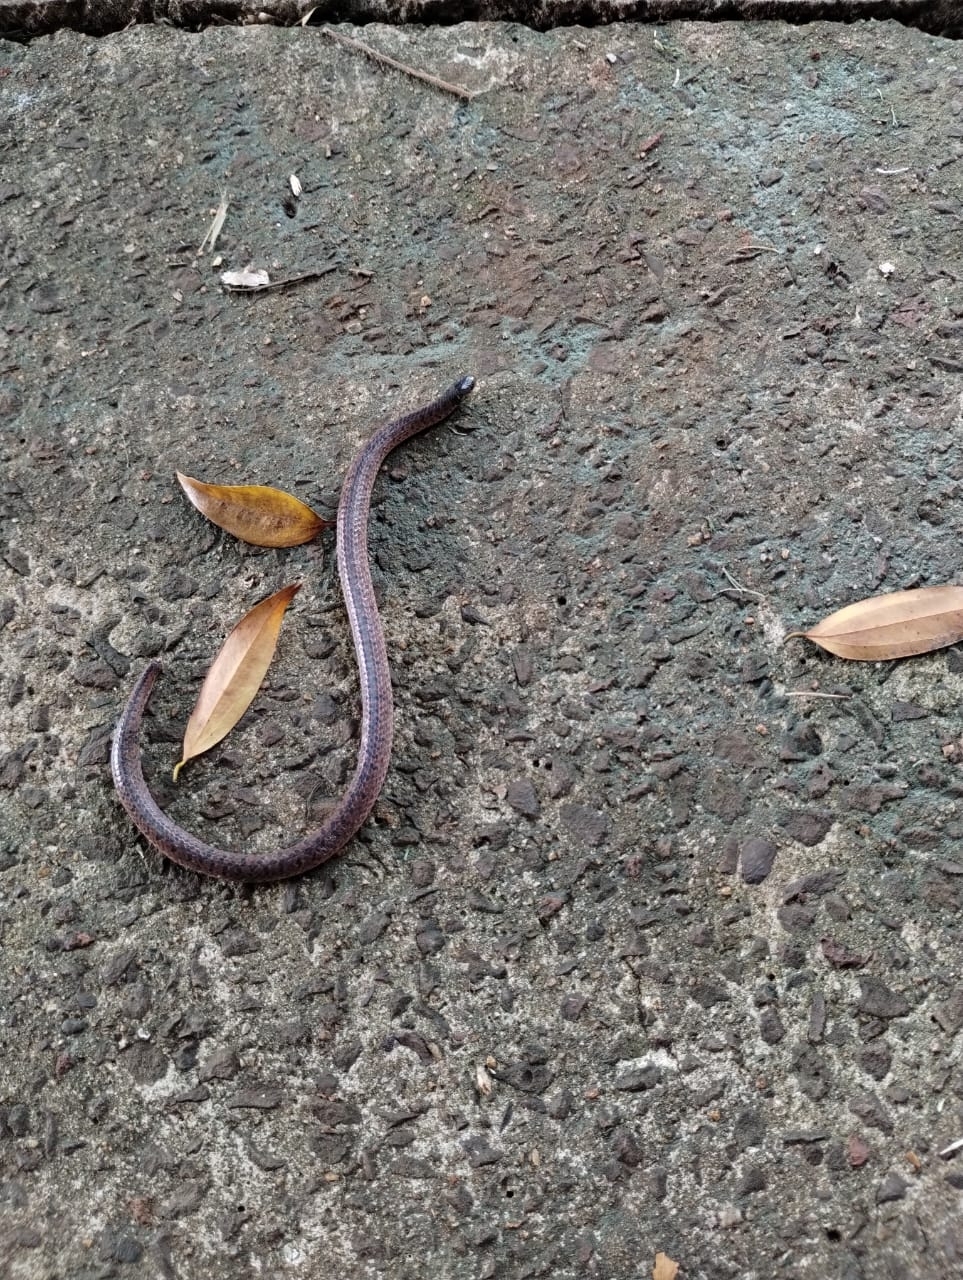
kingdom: Animalia
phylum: Chordata
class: Squamata
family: Colubridae
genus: Atractus
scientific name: Atractus paraguayensis
